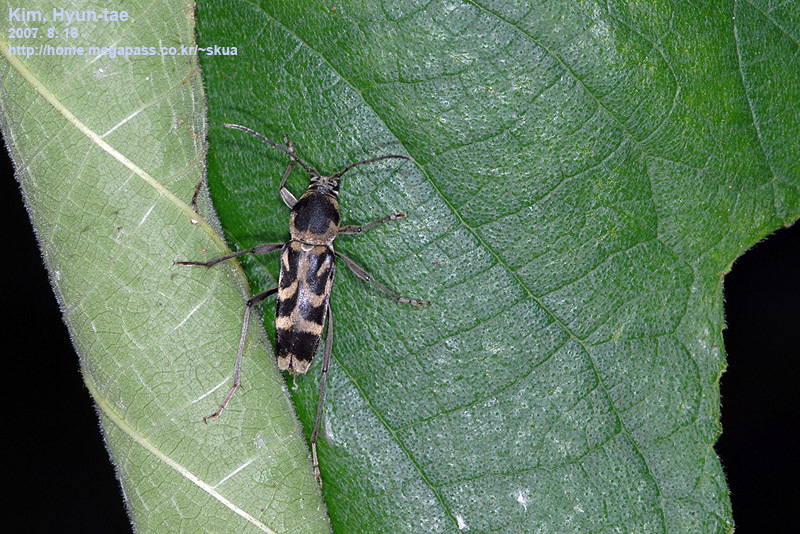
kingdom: Animalia
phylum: Arthropoda
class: Insecta
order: Coleoptera
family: Cerambycidae
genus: Chlorophorus
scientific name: Chlorophorus diadema
